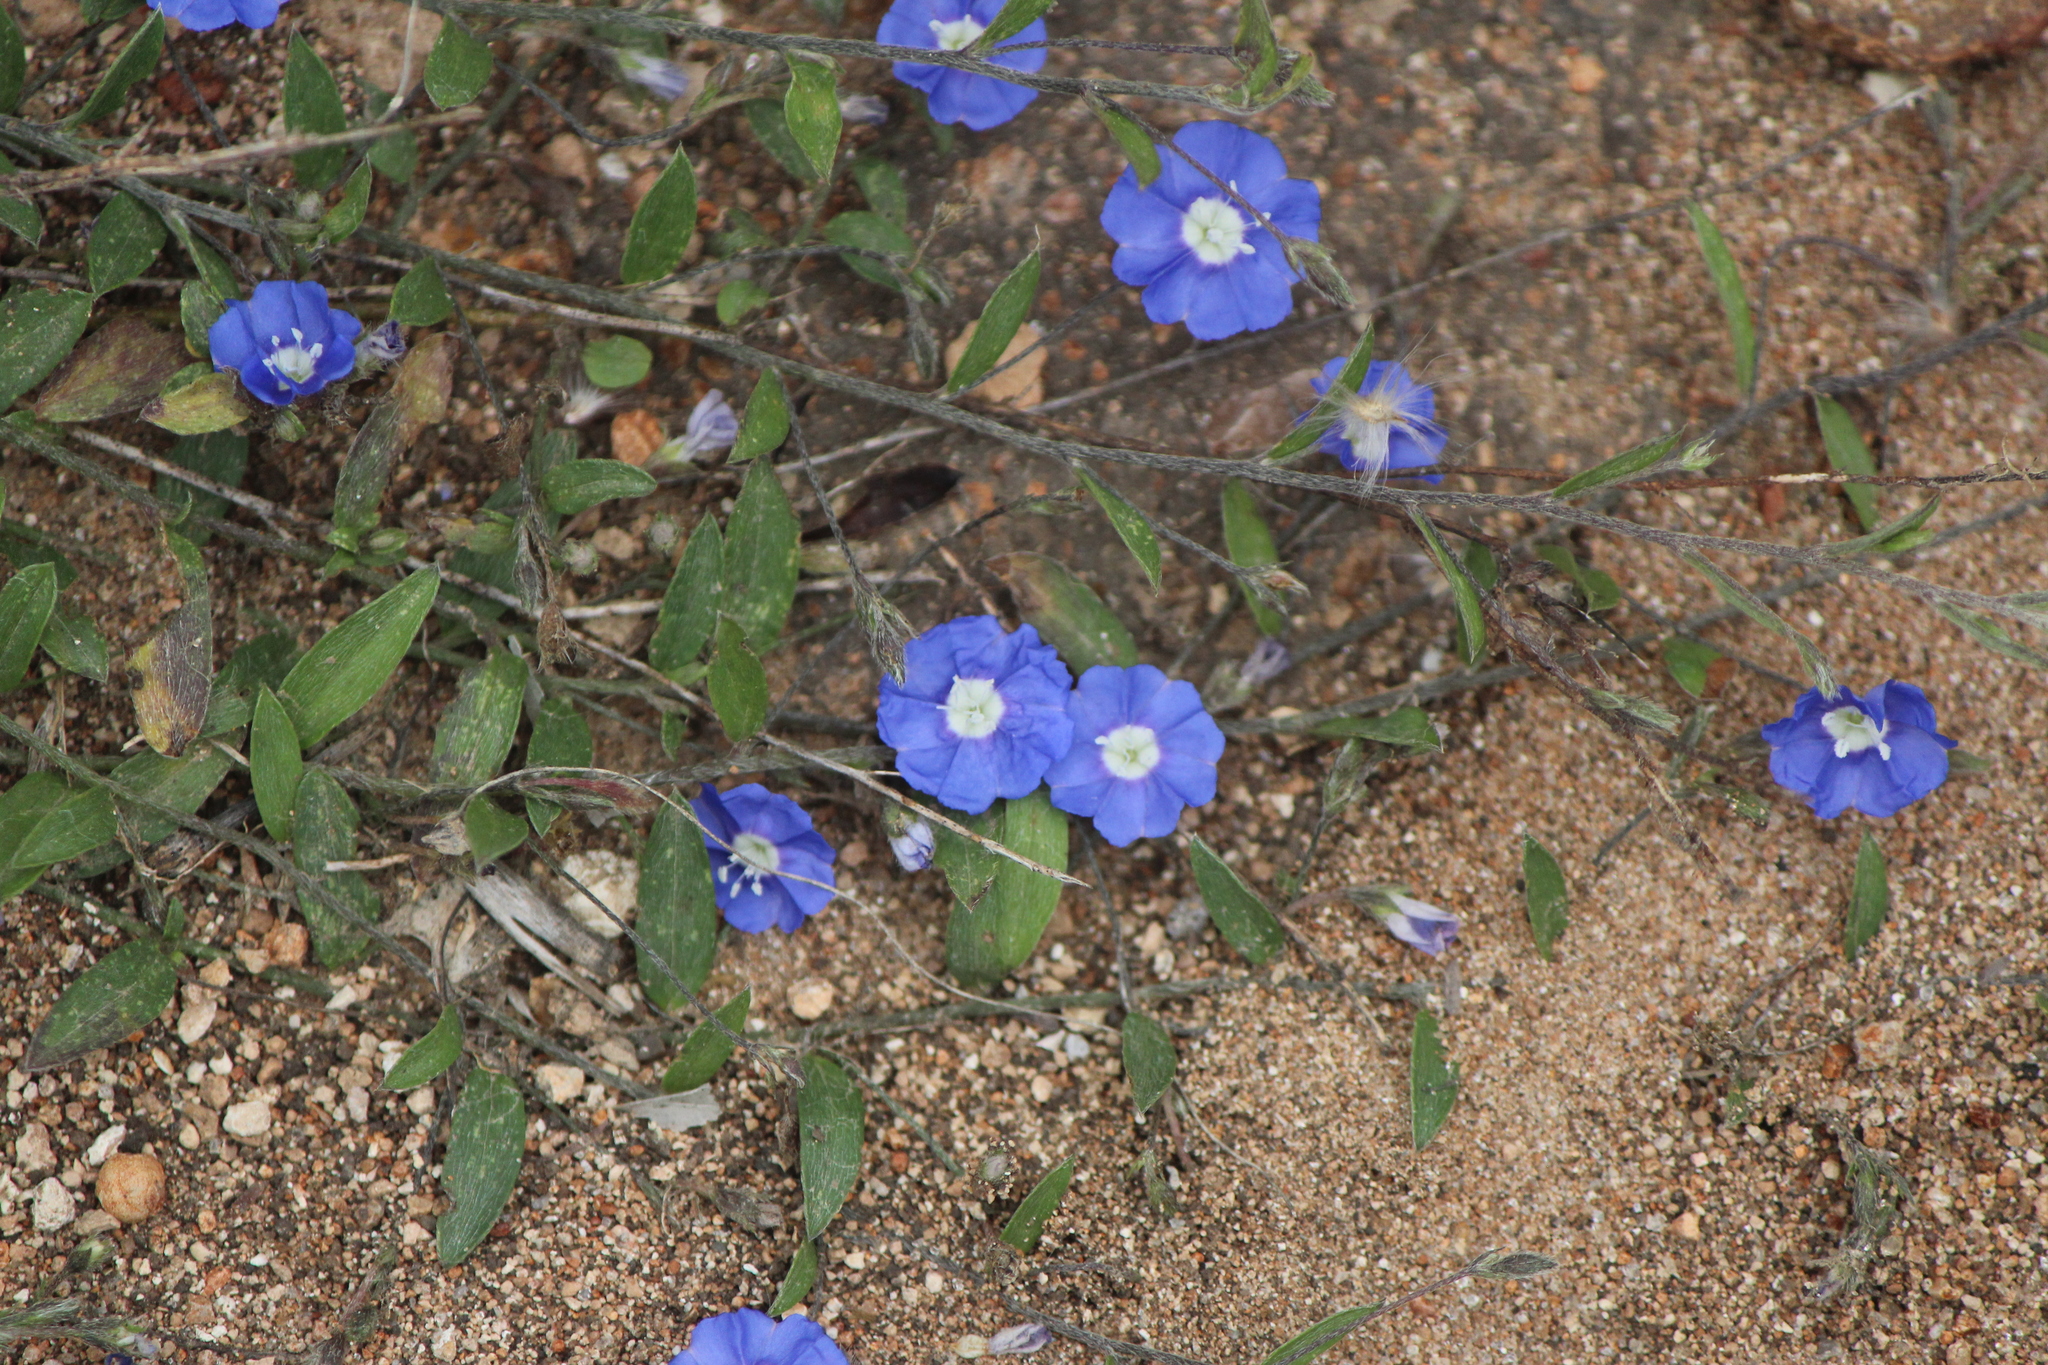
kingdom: Plantae
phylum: Tracheophyta
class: Magnoliopsida
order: Solanales
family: Convolvulaceae
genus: Evolvulus
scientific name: Evolvulus alsinoides
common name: Slender dwarf morning-glory
